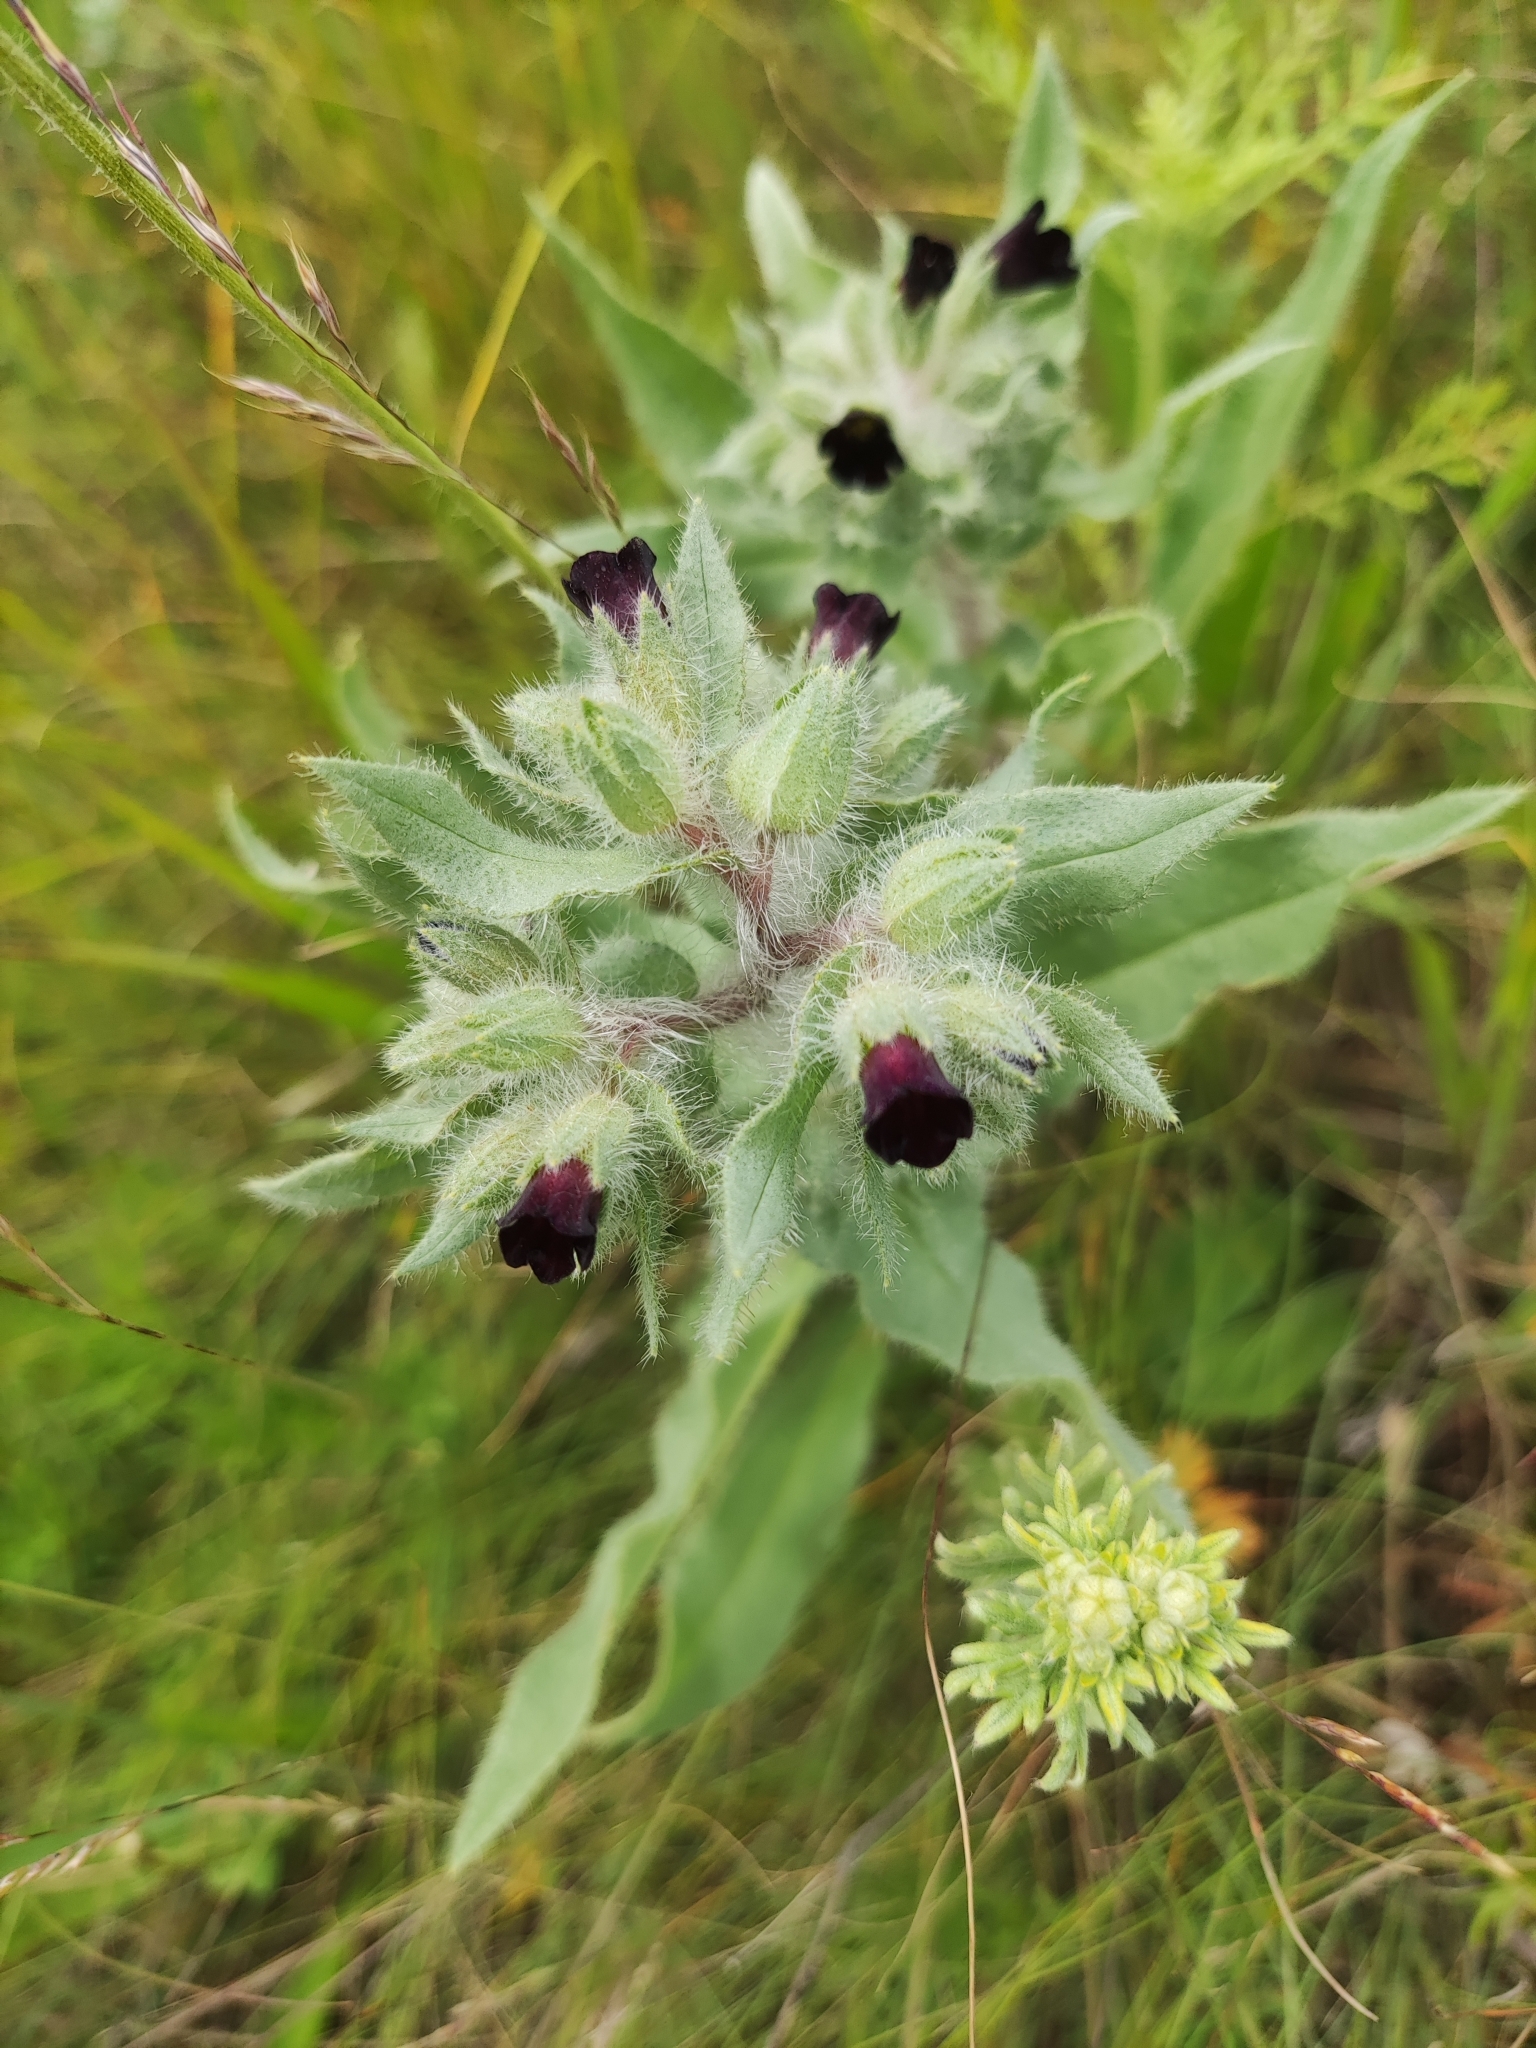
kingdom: Plantae
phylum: Tracheophyta
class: Magnoliopsida
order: Boraginales
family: Boraginaceae
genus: Nonea
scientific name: Nonea pulla
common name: Brown nonea
